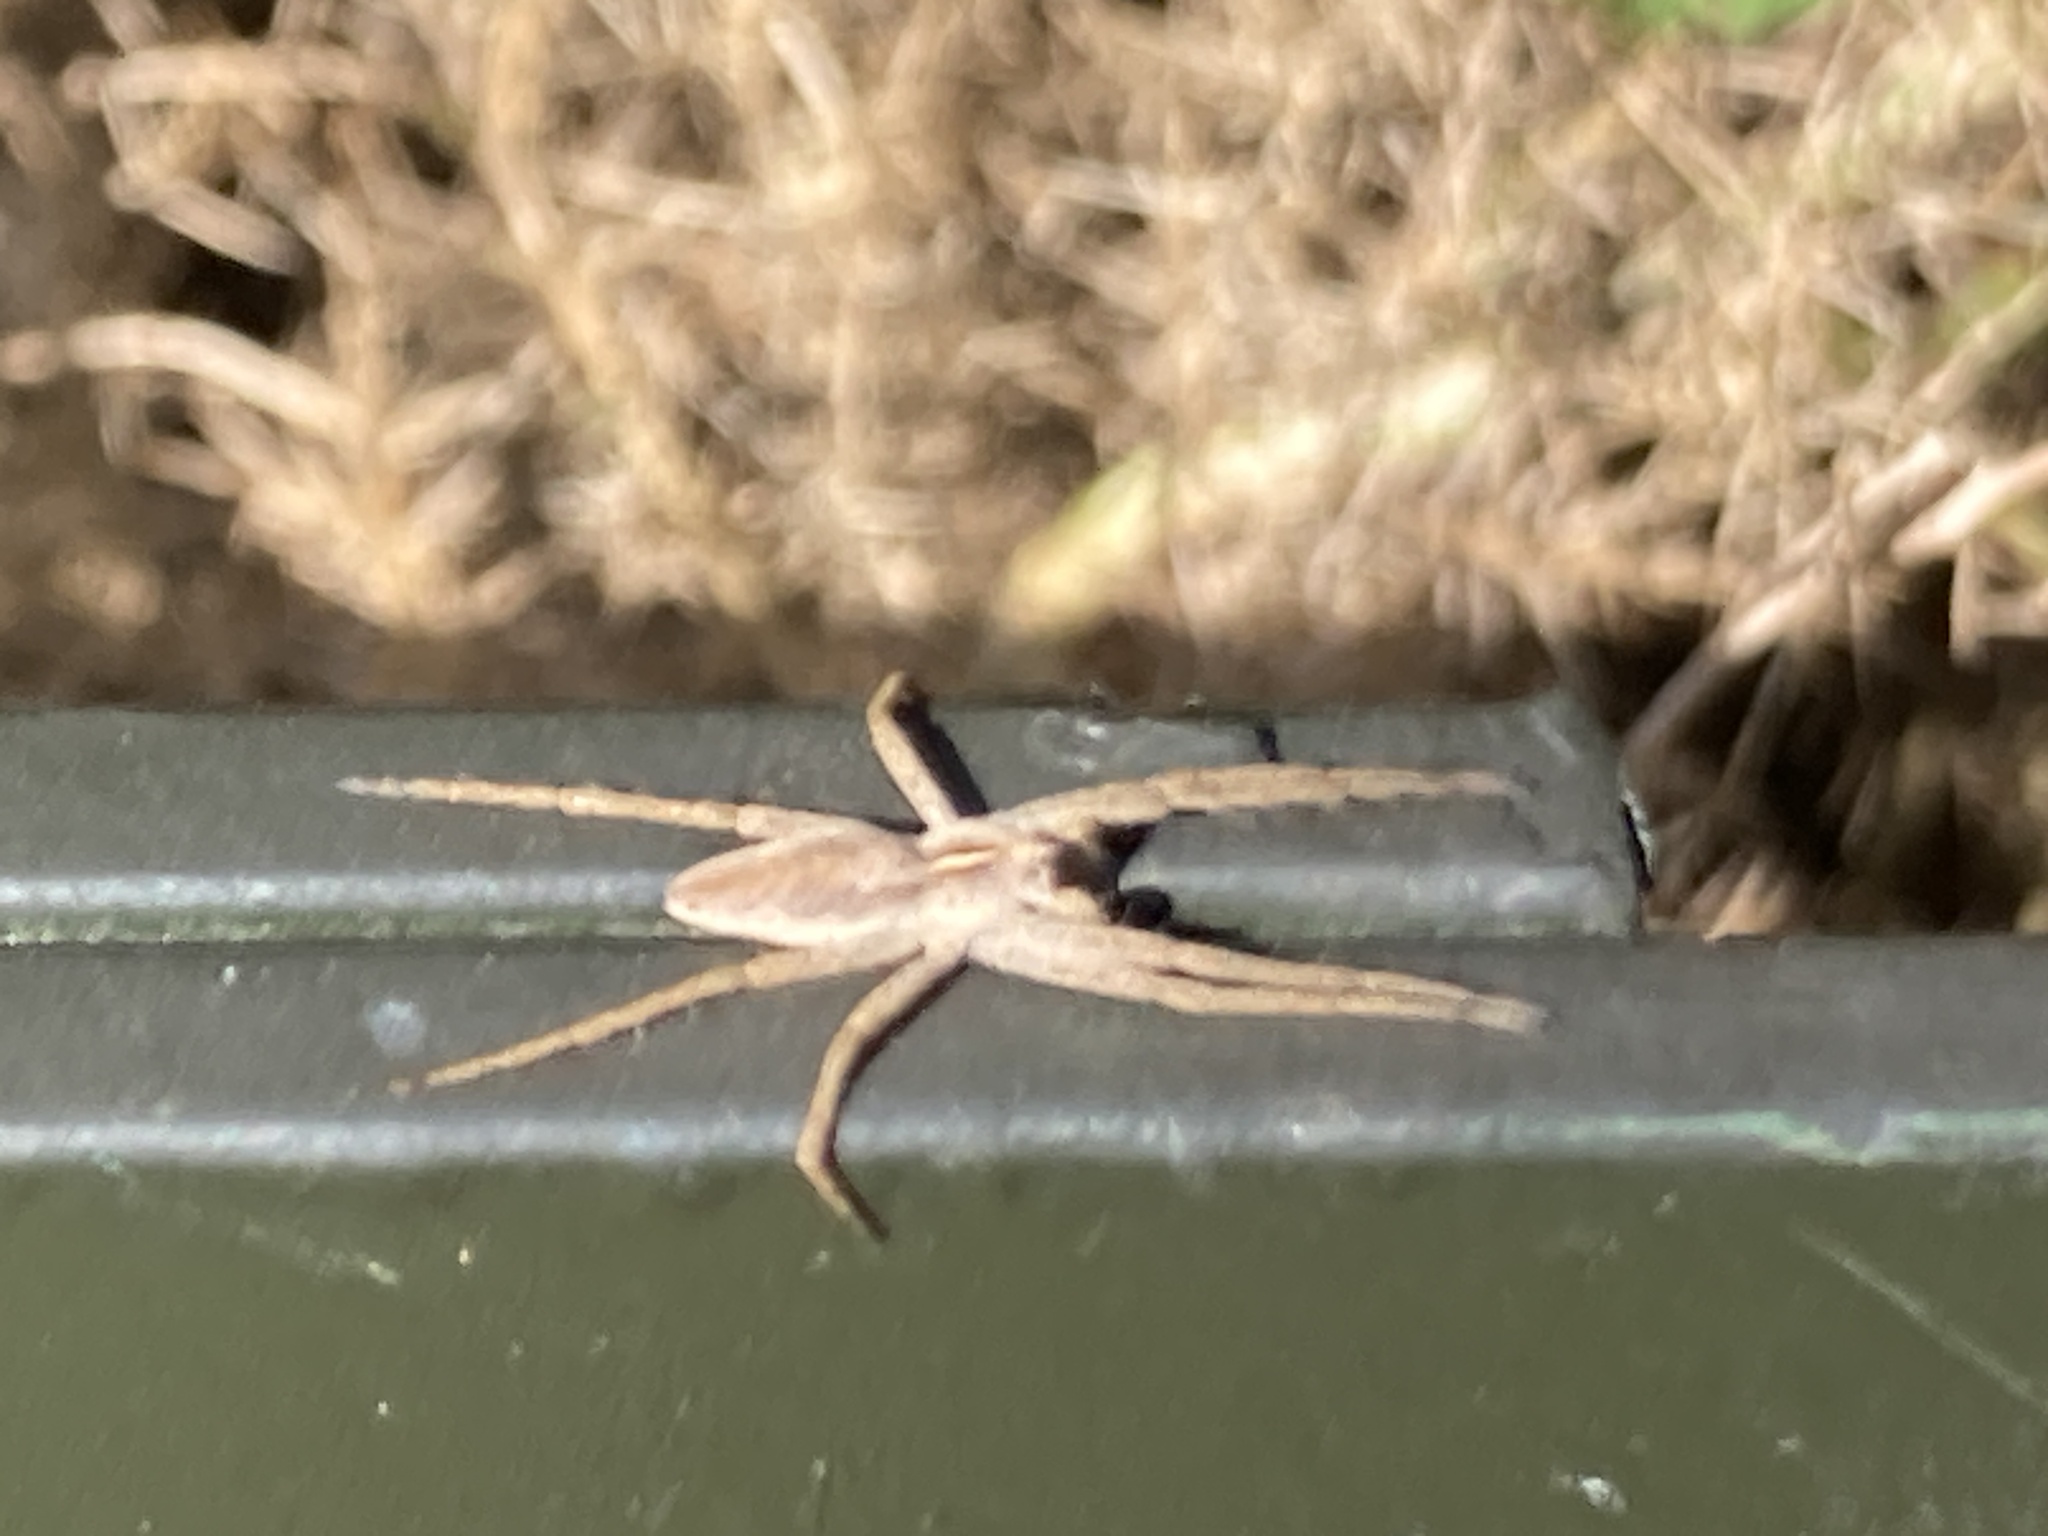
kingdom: Animalia
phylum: Arthropoda
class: Arachnida
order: Araneae
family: Pisauridae
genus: Pisaura
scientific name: Pisaura mirabilis
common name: Tent spider
